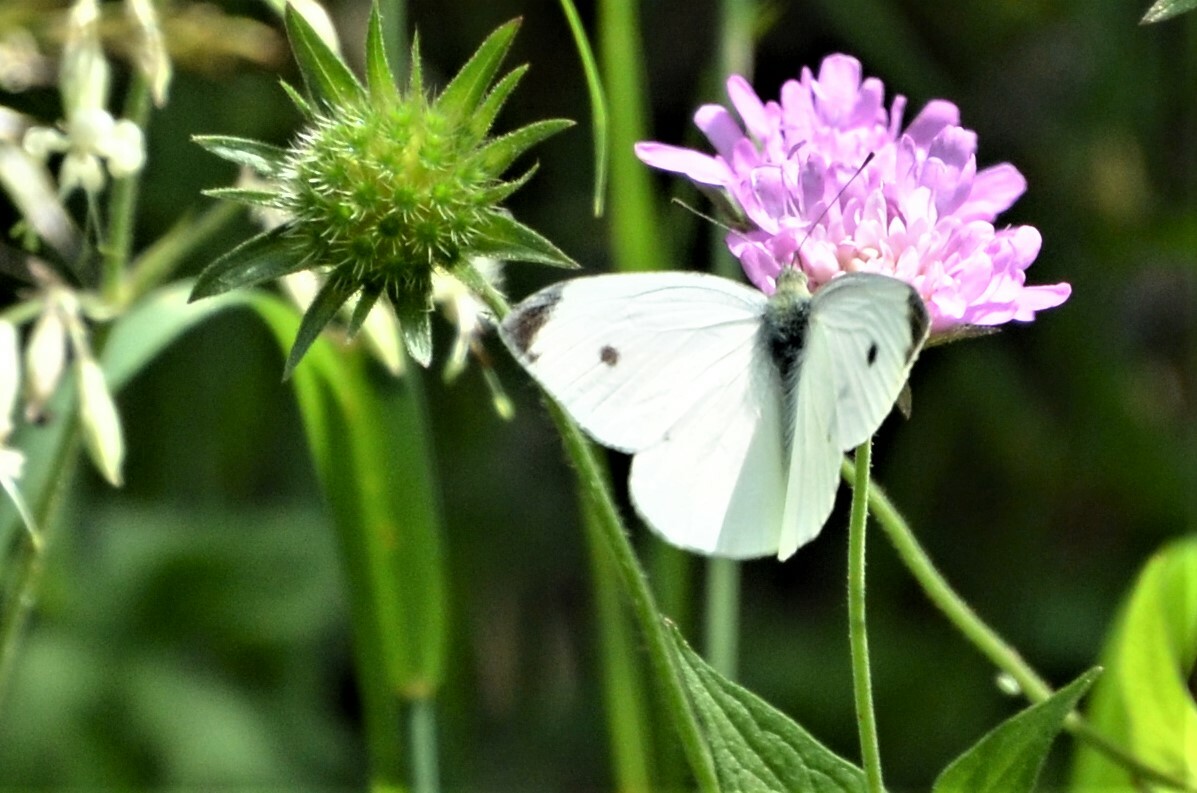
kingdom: Animalia
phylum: Arthropoda
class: Insecta
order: Lepidoptera
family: Pieridae
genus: Pieris
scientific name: Pieris rapae
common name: Small white
